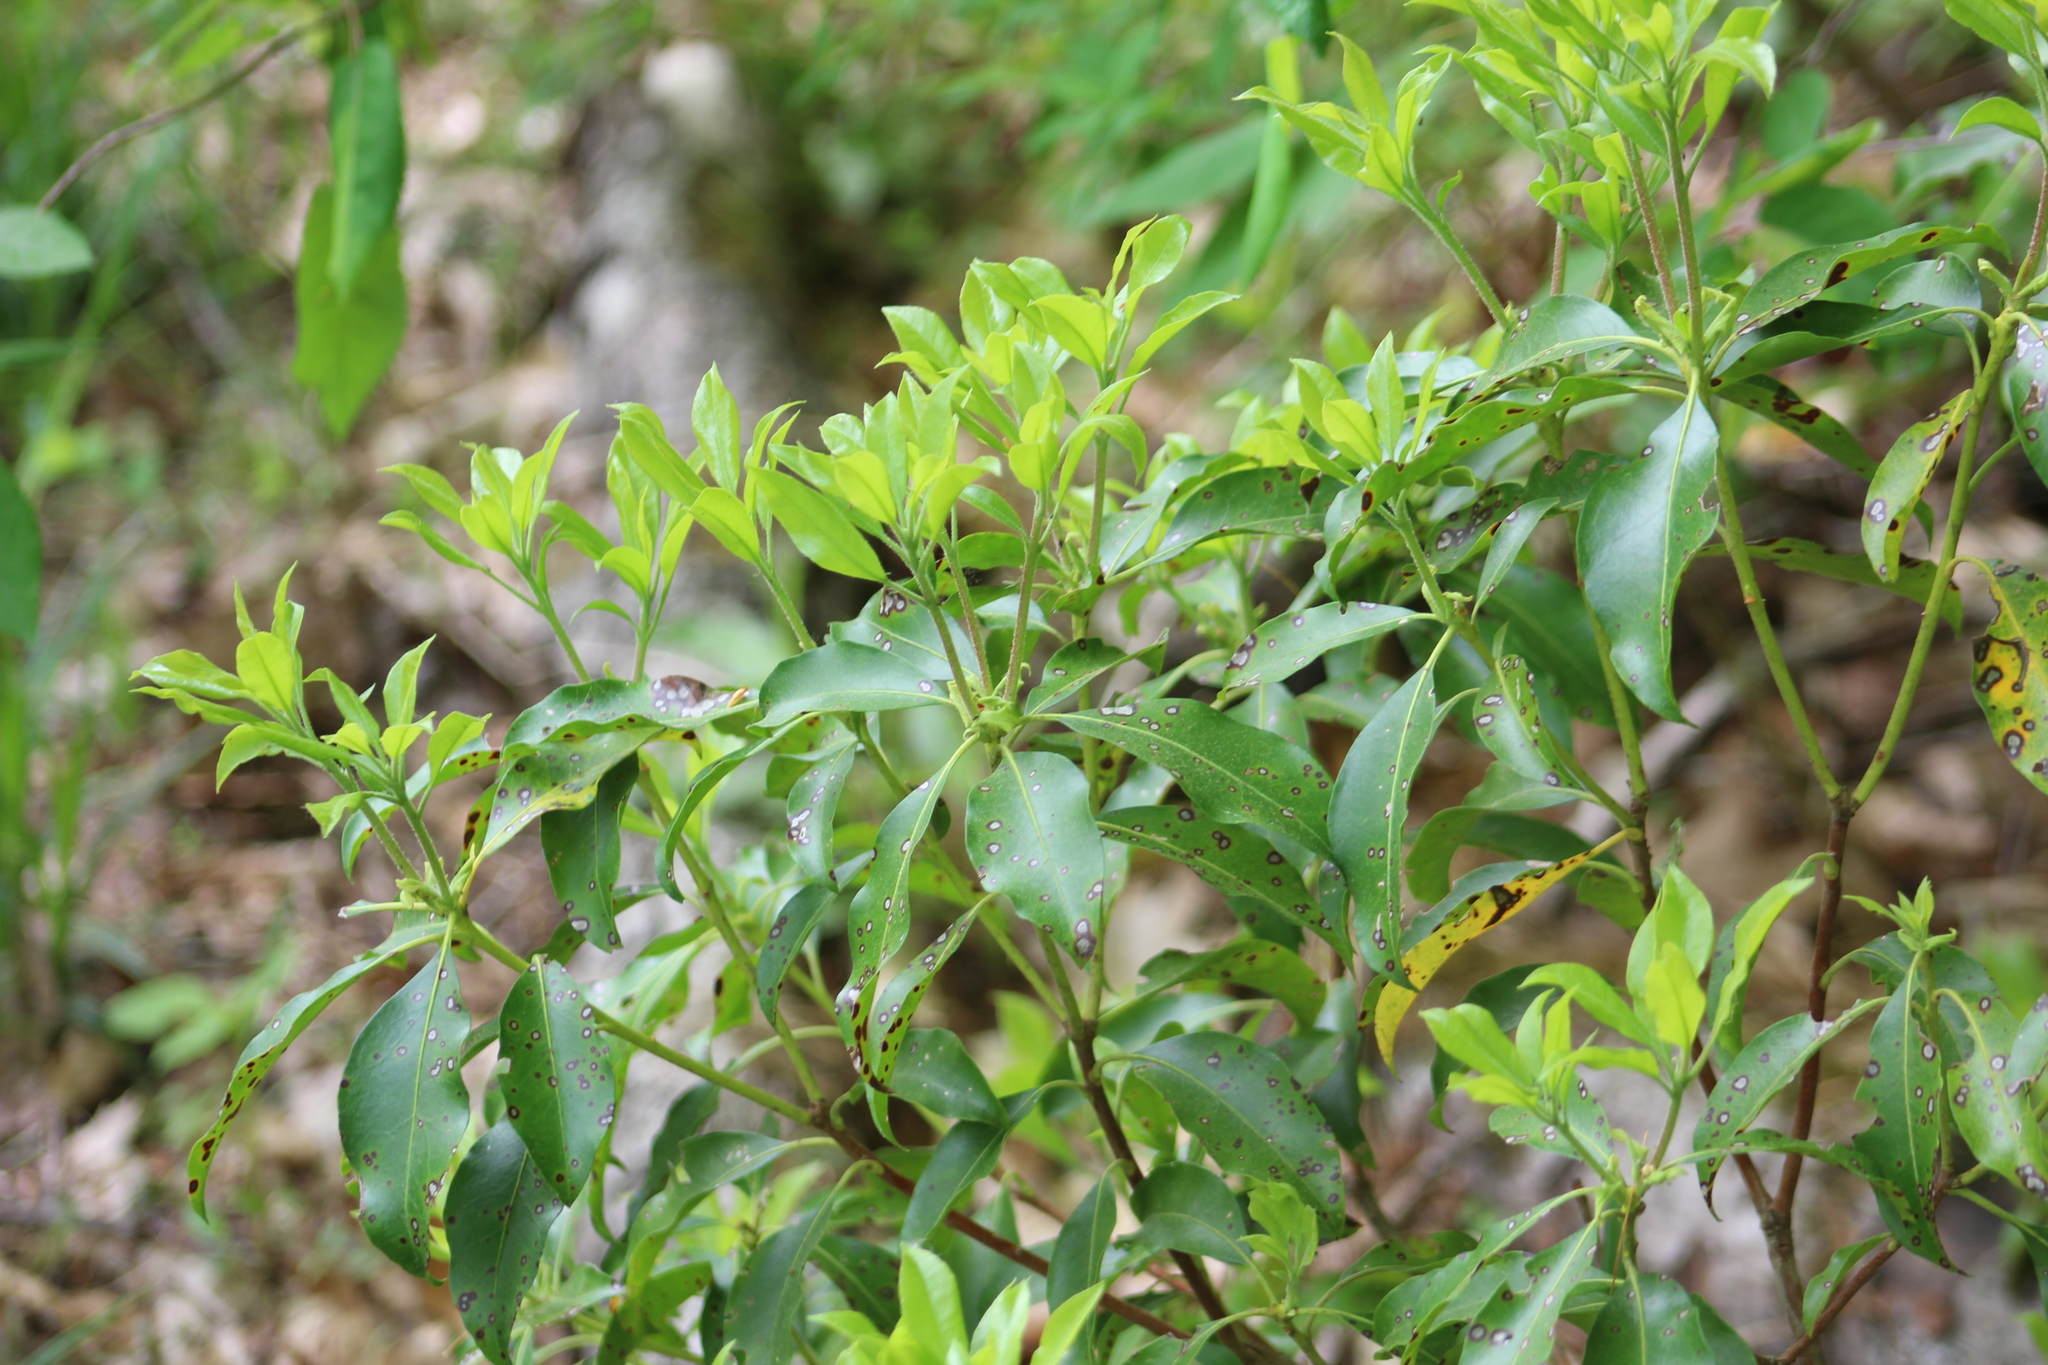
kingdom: Plantae
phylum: Tracheophyta
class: Magnoliopsida
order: Ericales
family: Ericaceae
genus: Kalmia
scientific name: Kalmia latifolia
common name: Mountain-laurel
